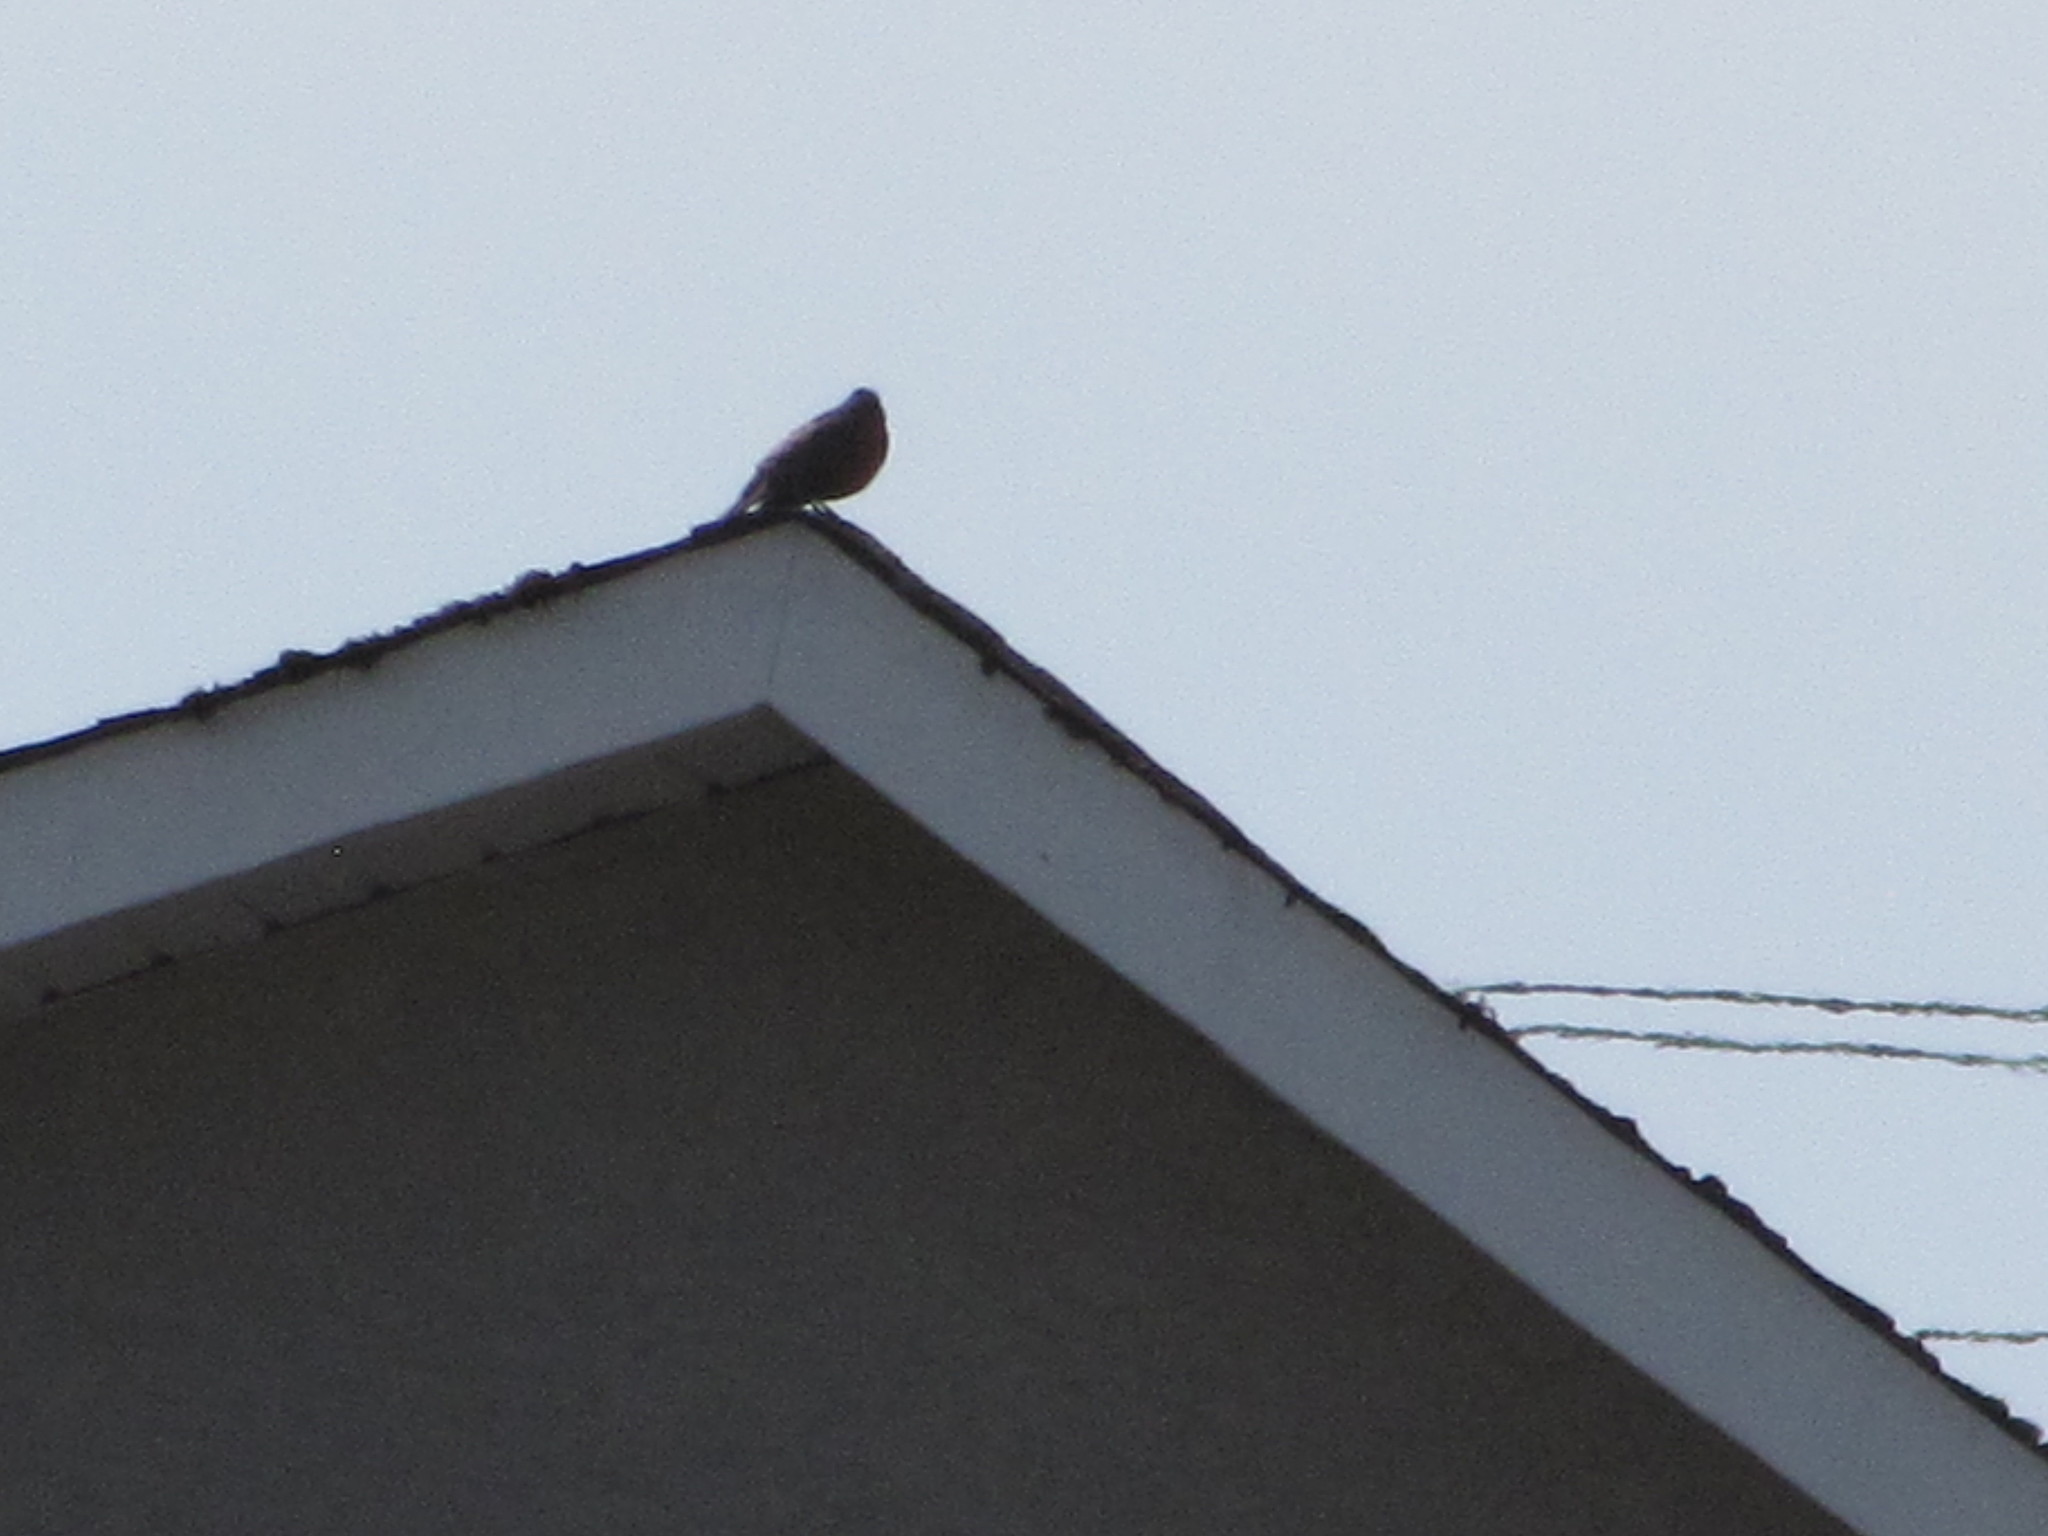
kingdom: Animalia
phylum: Chordata
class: Aves
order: Passeriformes
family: Turdidae
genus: Turdus
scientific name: Turdus migratorius
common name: American robin
